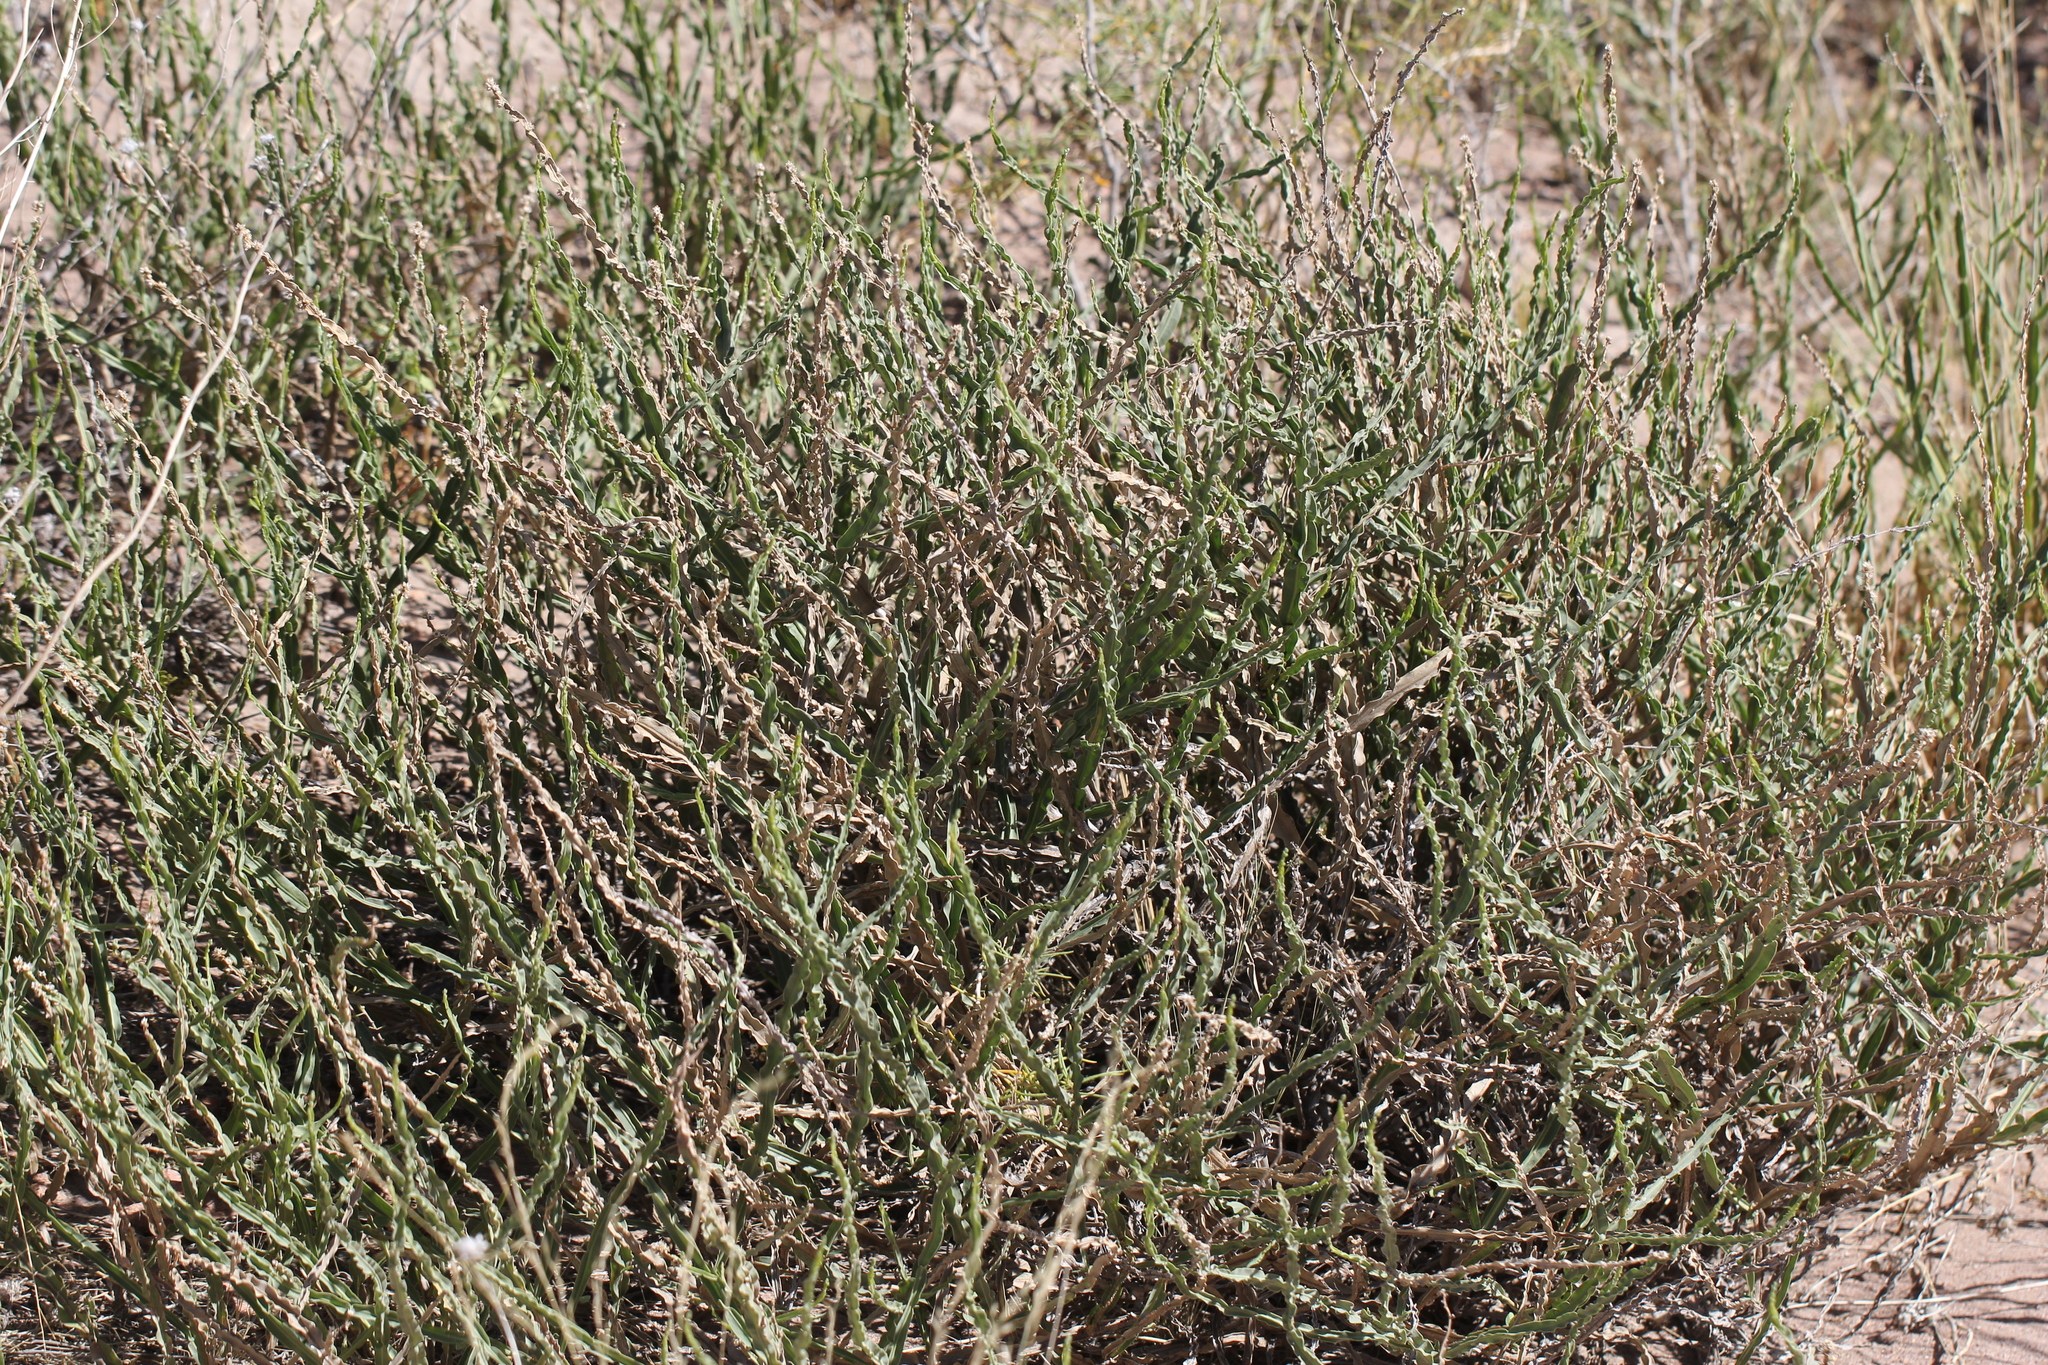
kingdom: Plantae
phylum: Tracheophyta
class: Magnoliopsida
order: Asterales
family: Asteraceae
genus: Baccharis
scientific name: Baccharis crispa
